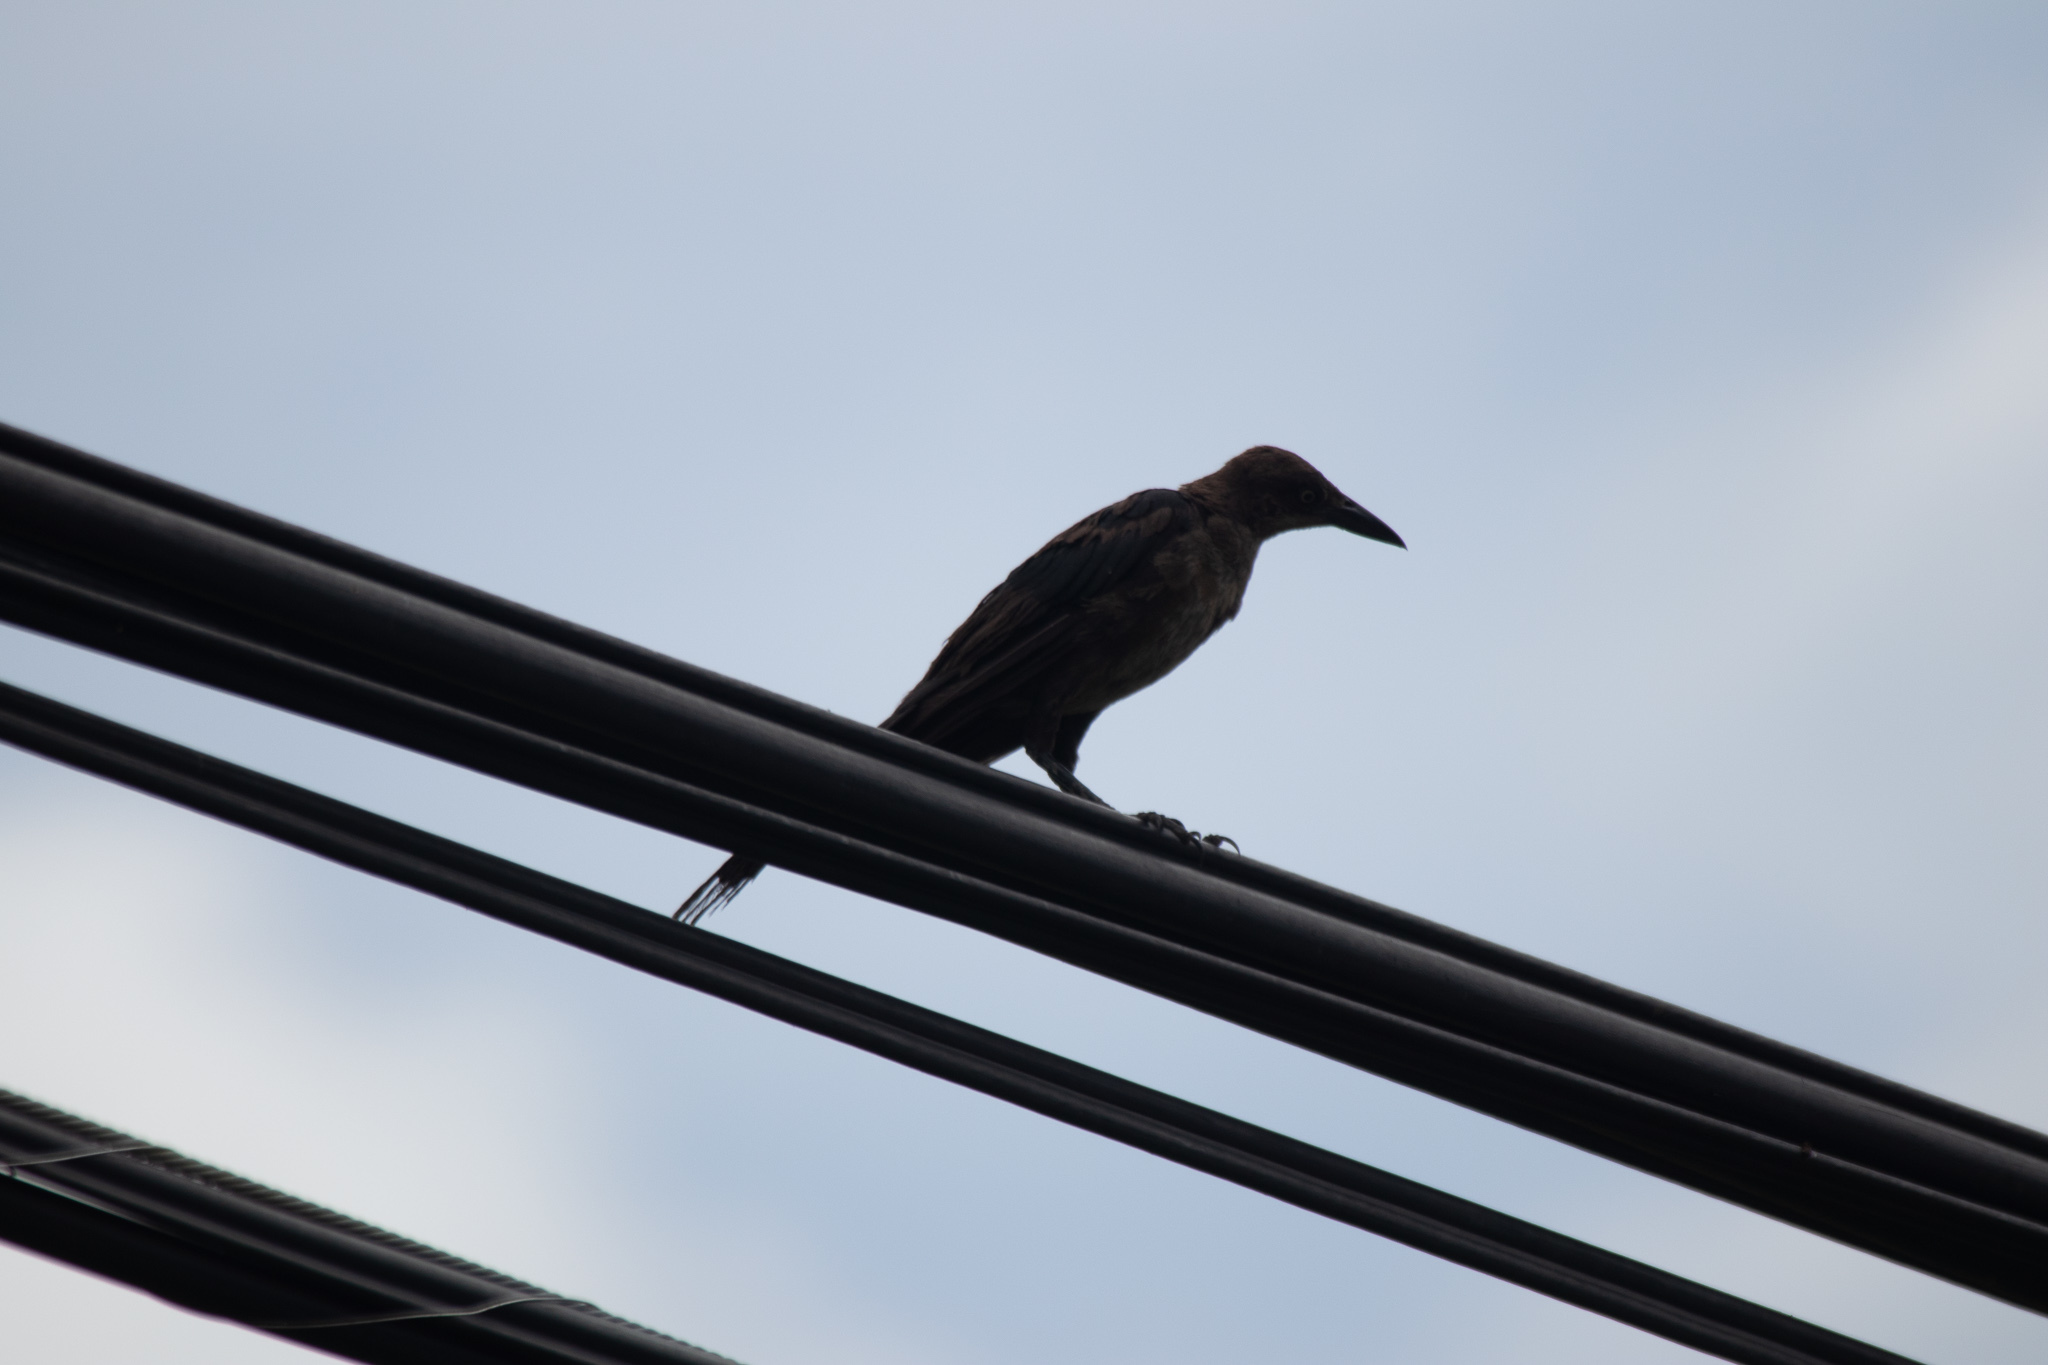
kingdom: Animalia
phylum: Chordata
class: Aves
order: Passeriformes
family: Icteridae
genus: Quiscalus
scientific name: Quiscalus mexicanus
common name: Great-tailed grackle
